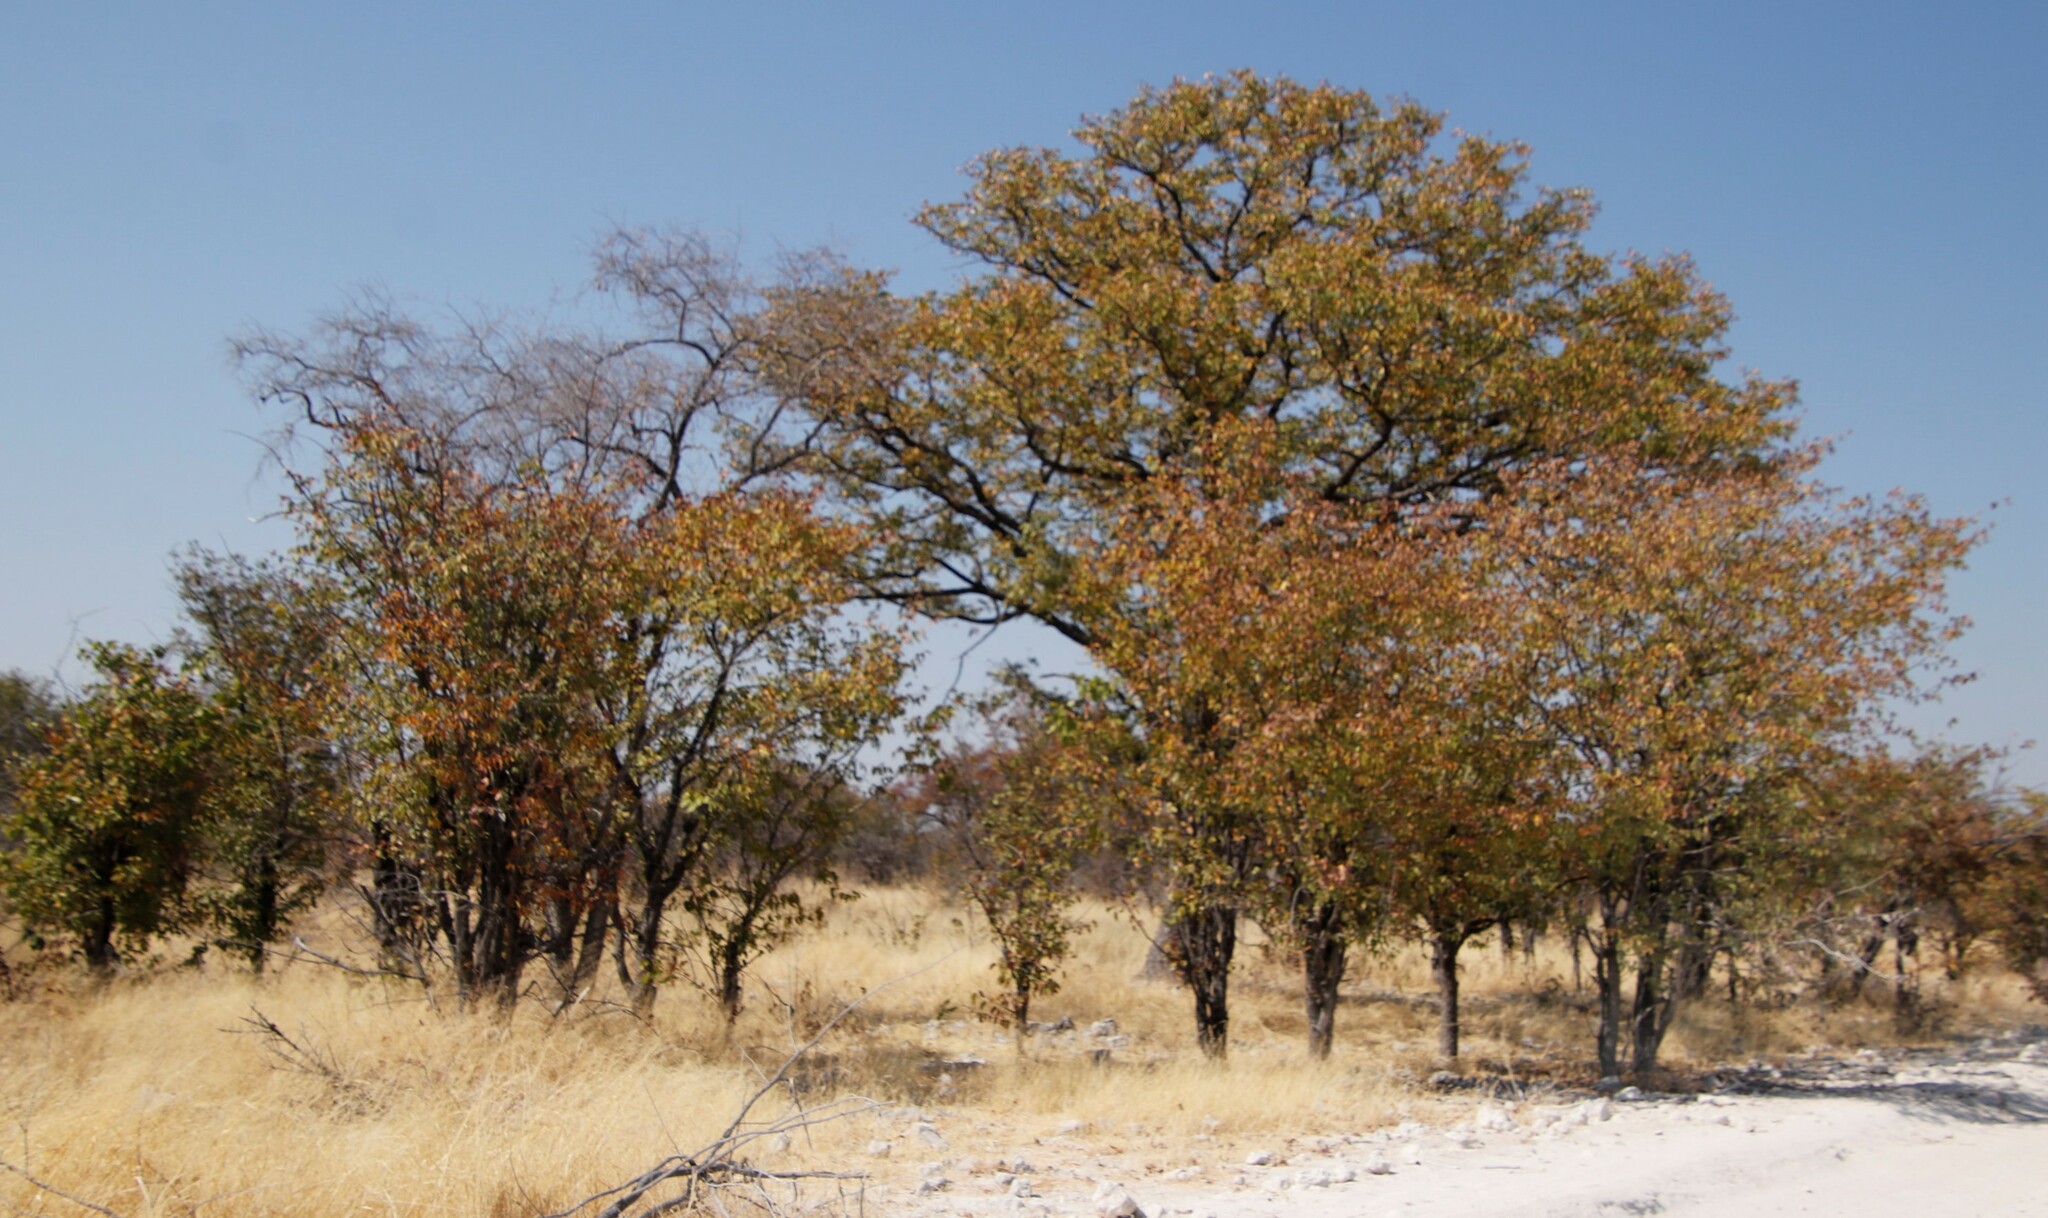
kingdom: Plantae
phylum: Tracheophyta
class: Magnoliopsida
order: Fabales
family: Fabaceae
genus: Colophospermum
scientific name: Colophospermum mopane
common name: Mopane
